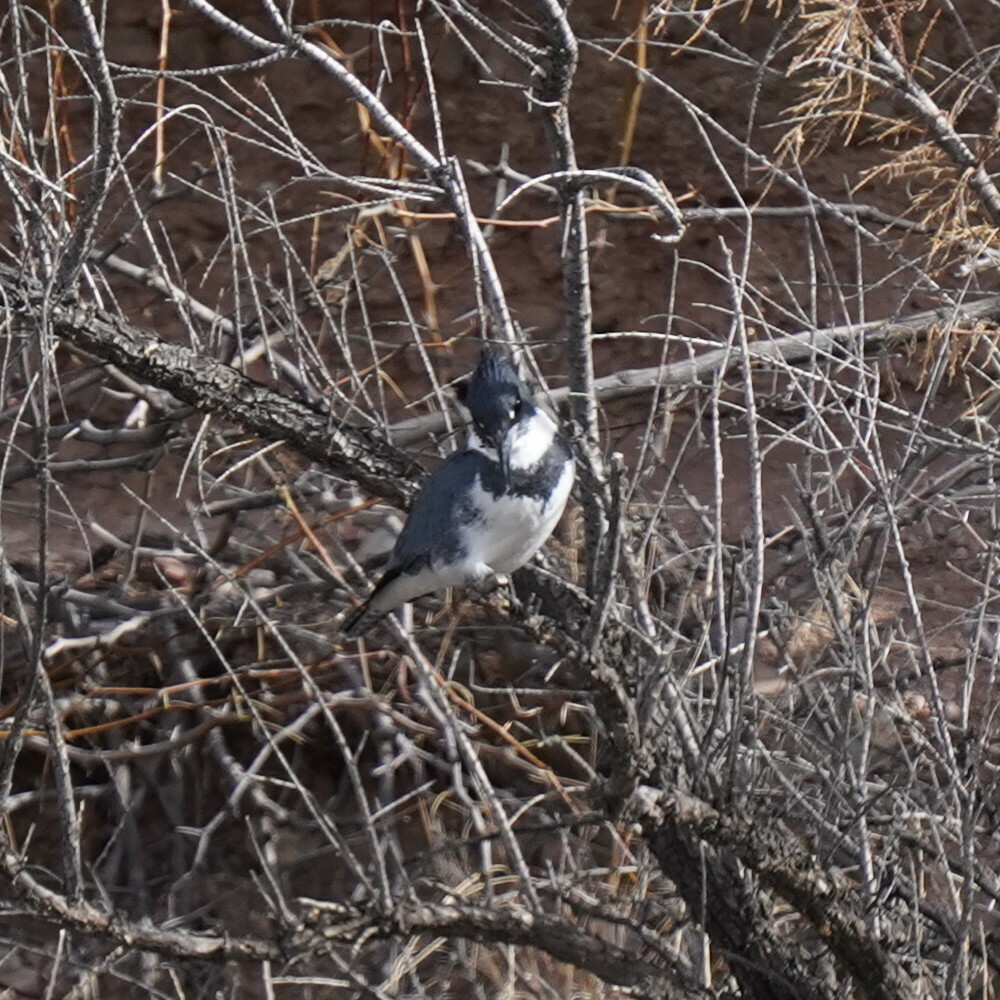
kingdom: Animalia
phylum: Chordata
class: Aves
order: Coraciiformes
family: Alcedinidae
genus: Megaceryle
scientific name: Megaceryle alcyon
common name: Belted kingfisher
